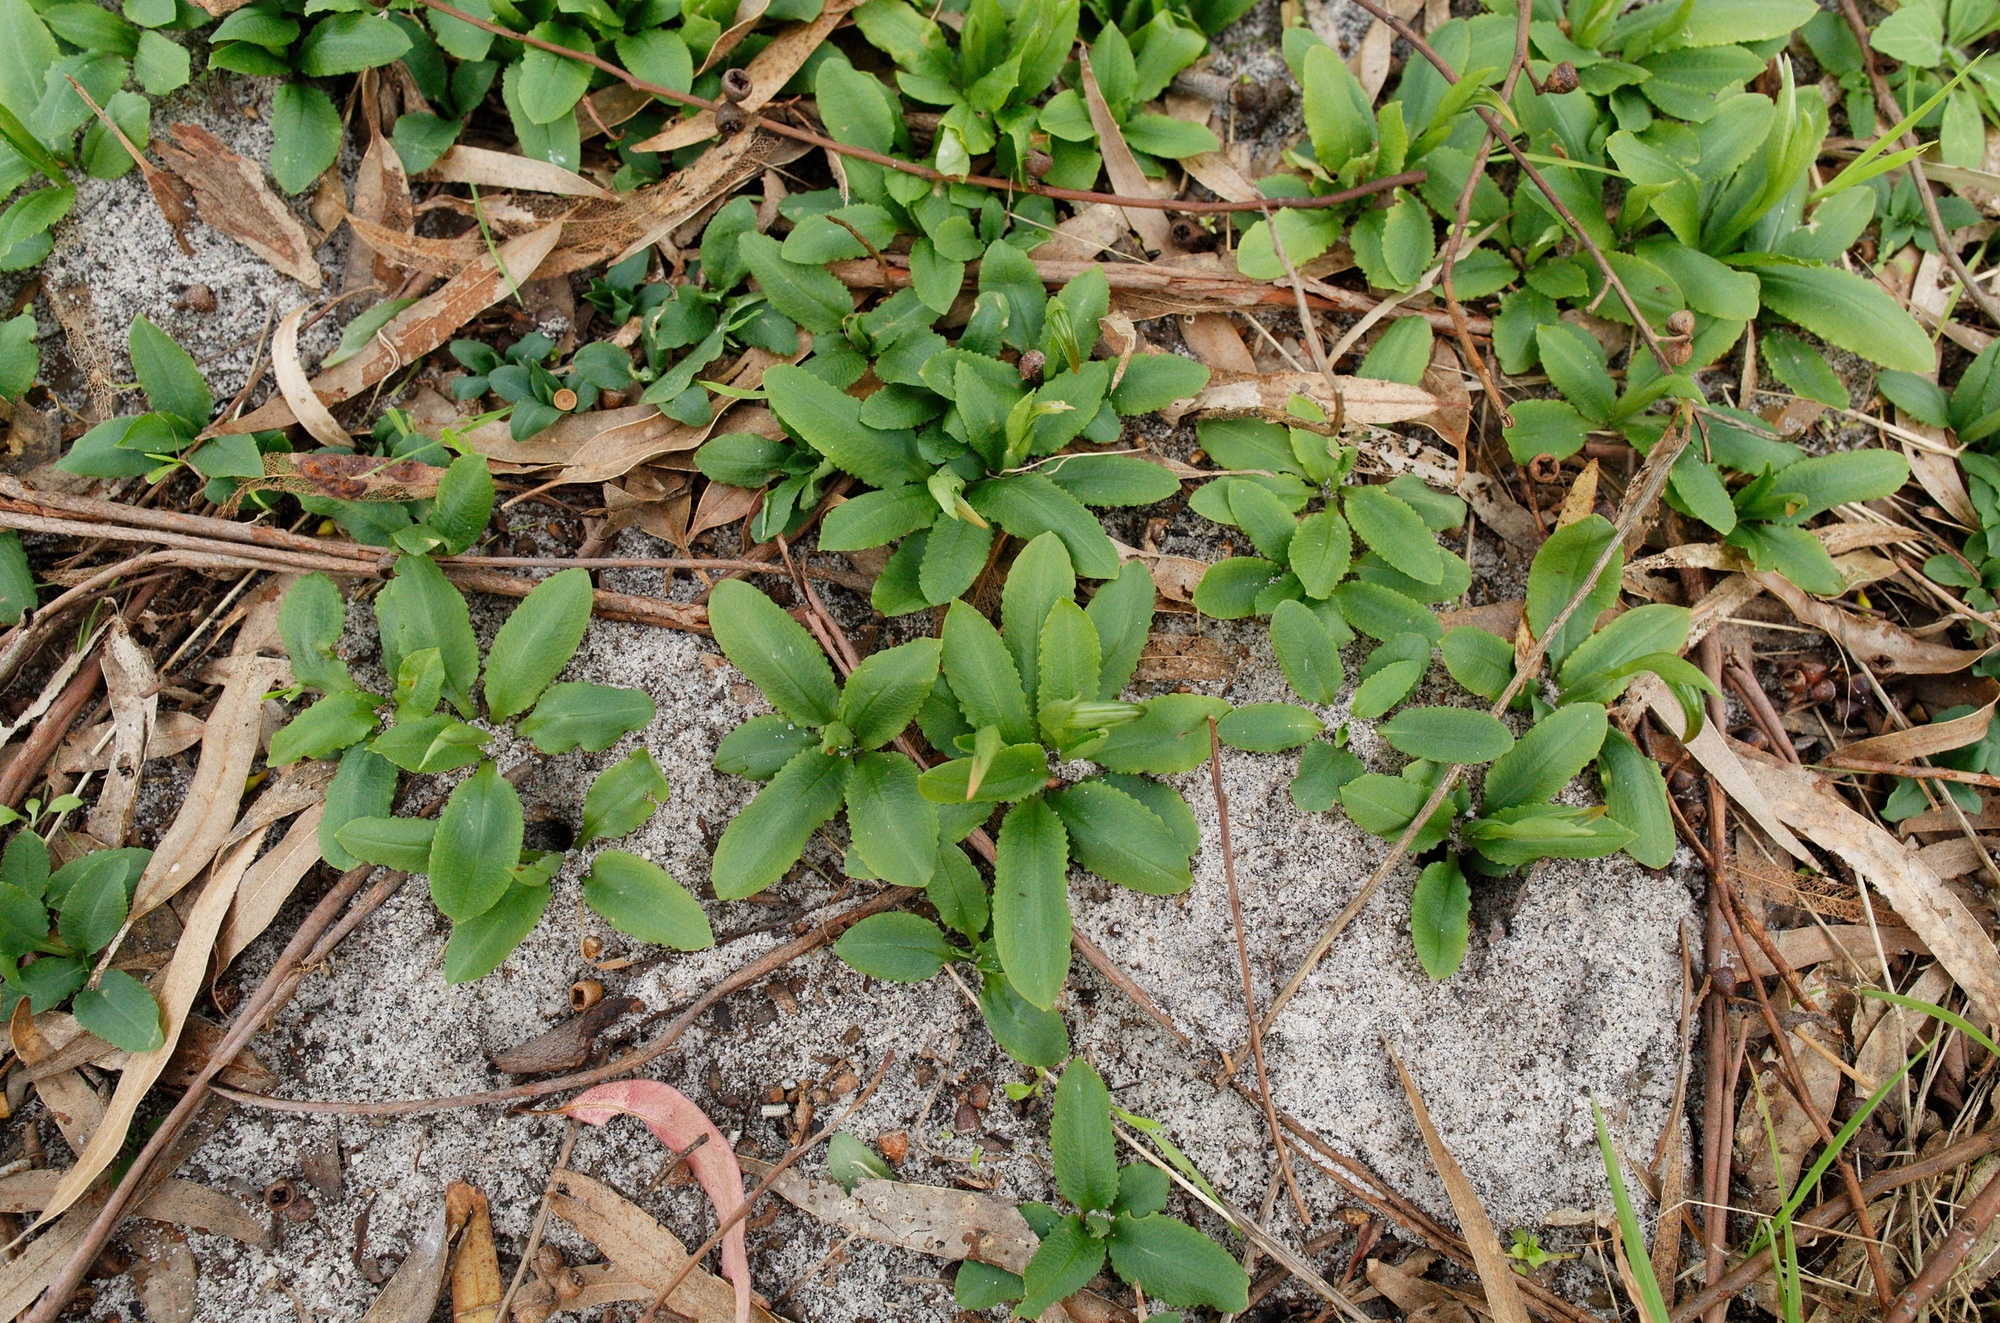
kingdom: Plantae
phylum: Tracheophyta
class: Liliopsida
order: Asparagales
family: Orchidaceae
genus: Pterostylis
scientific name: Pterostylis nutans
